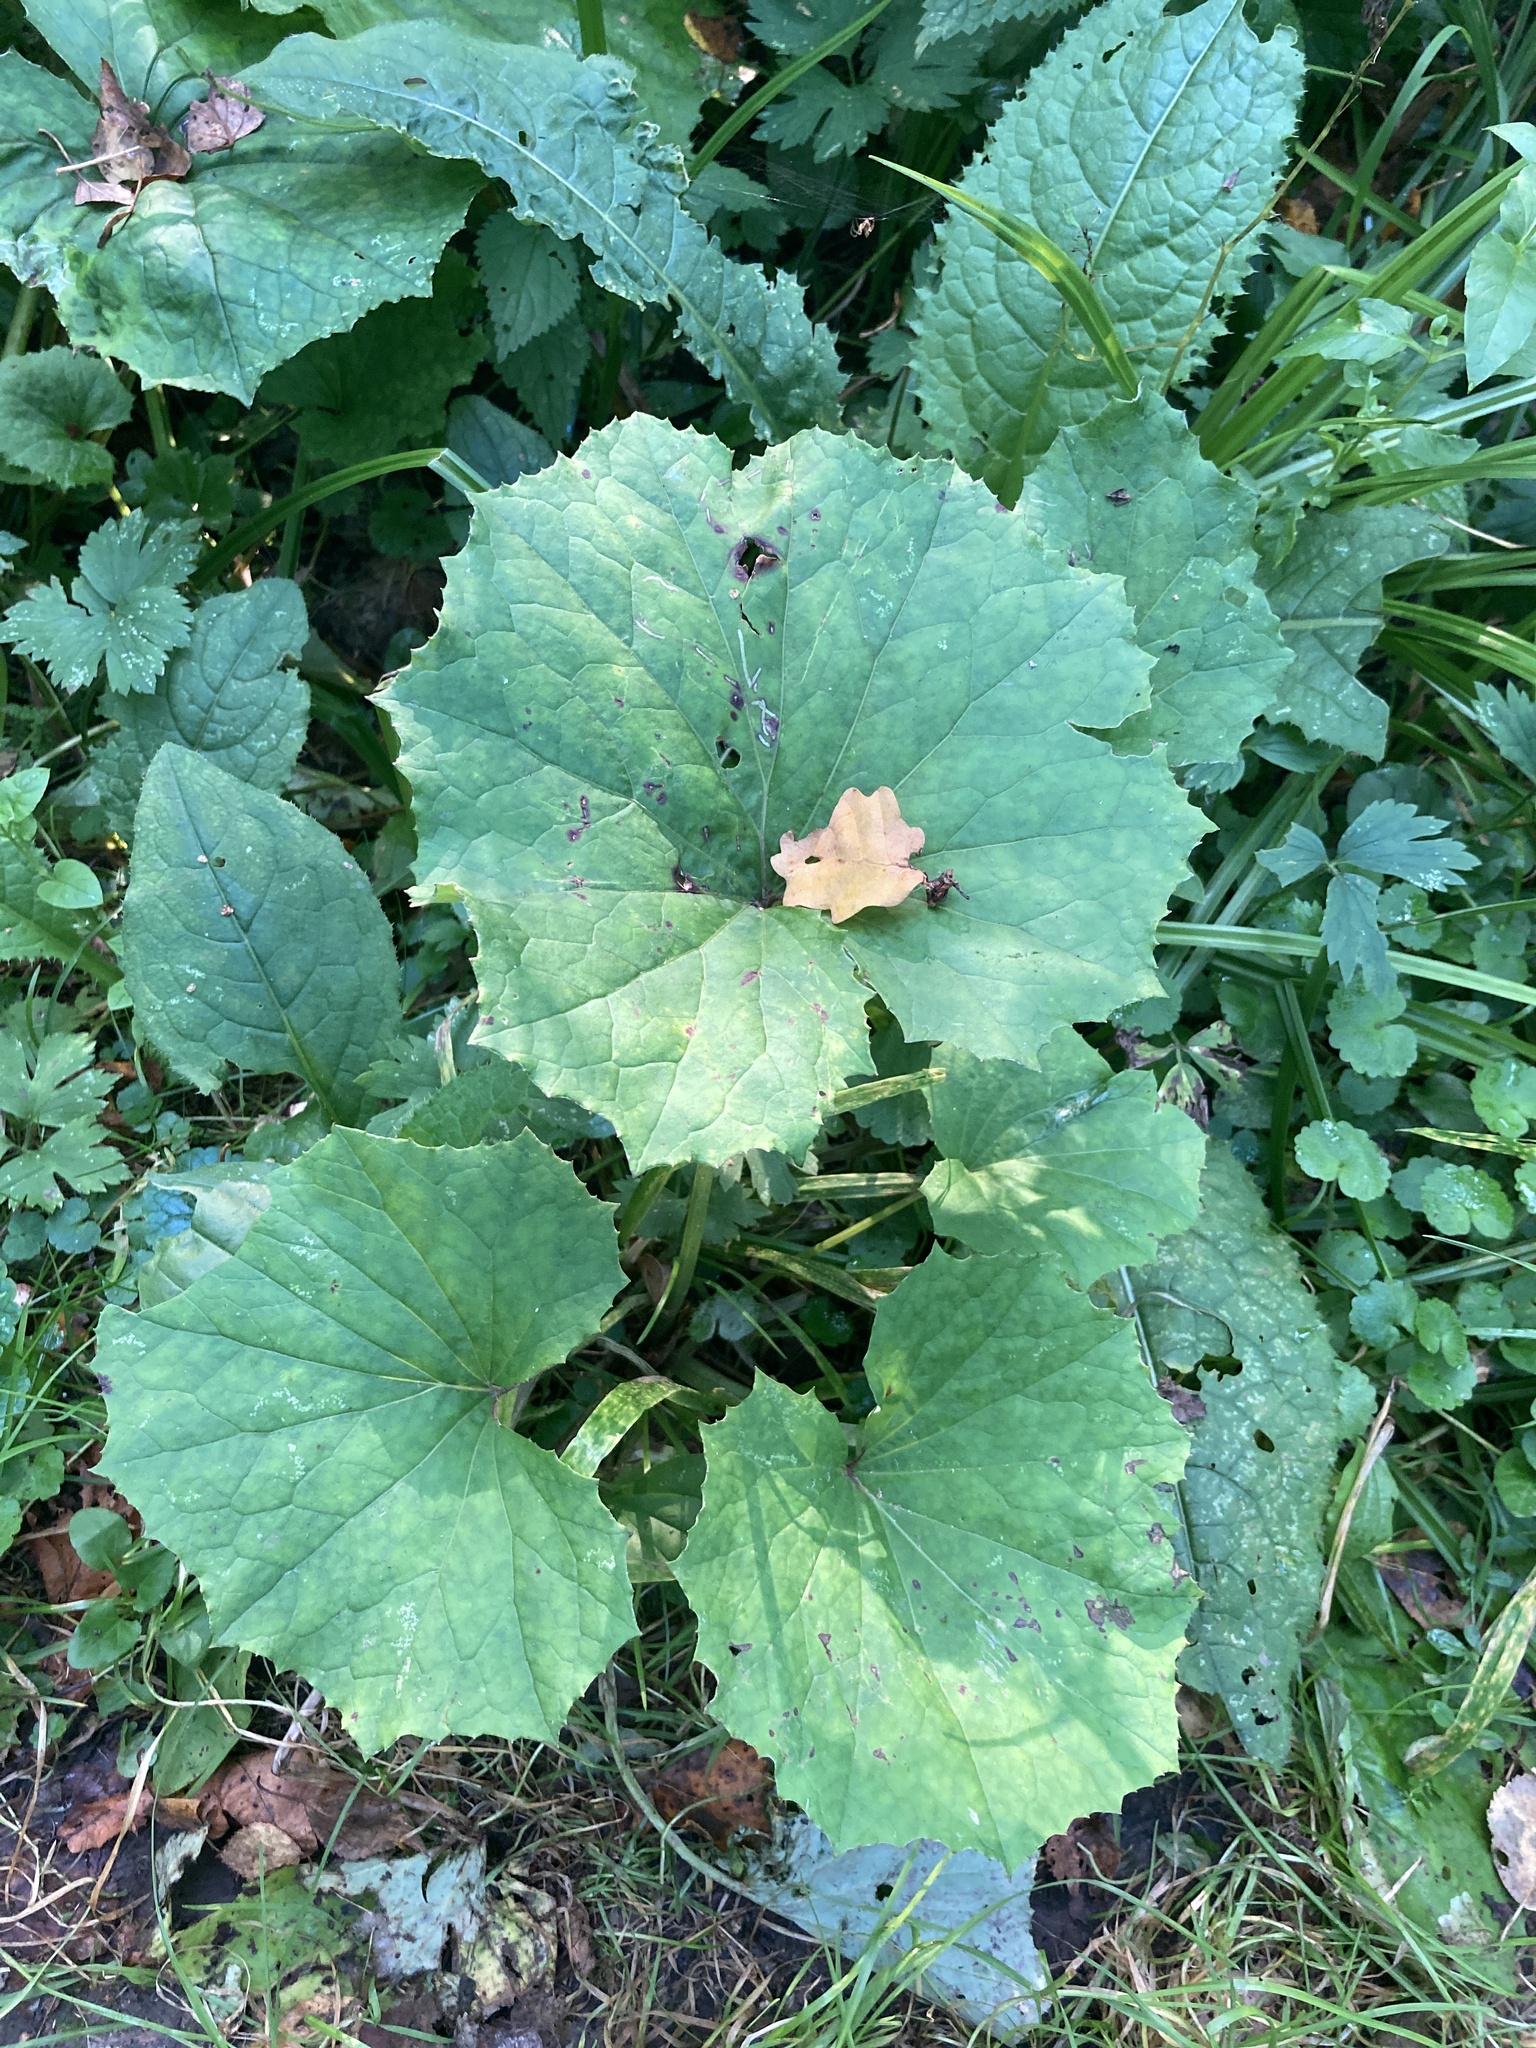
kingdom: Plantae
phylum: Tracheophyta
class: Magnoliopsida
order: Asterales
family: Asteraceae
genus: Tussilago
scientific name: Tussilago farfara
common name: Coltsfoot
